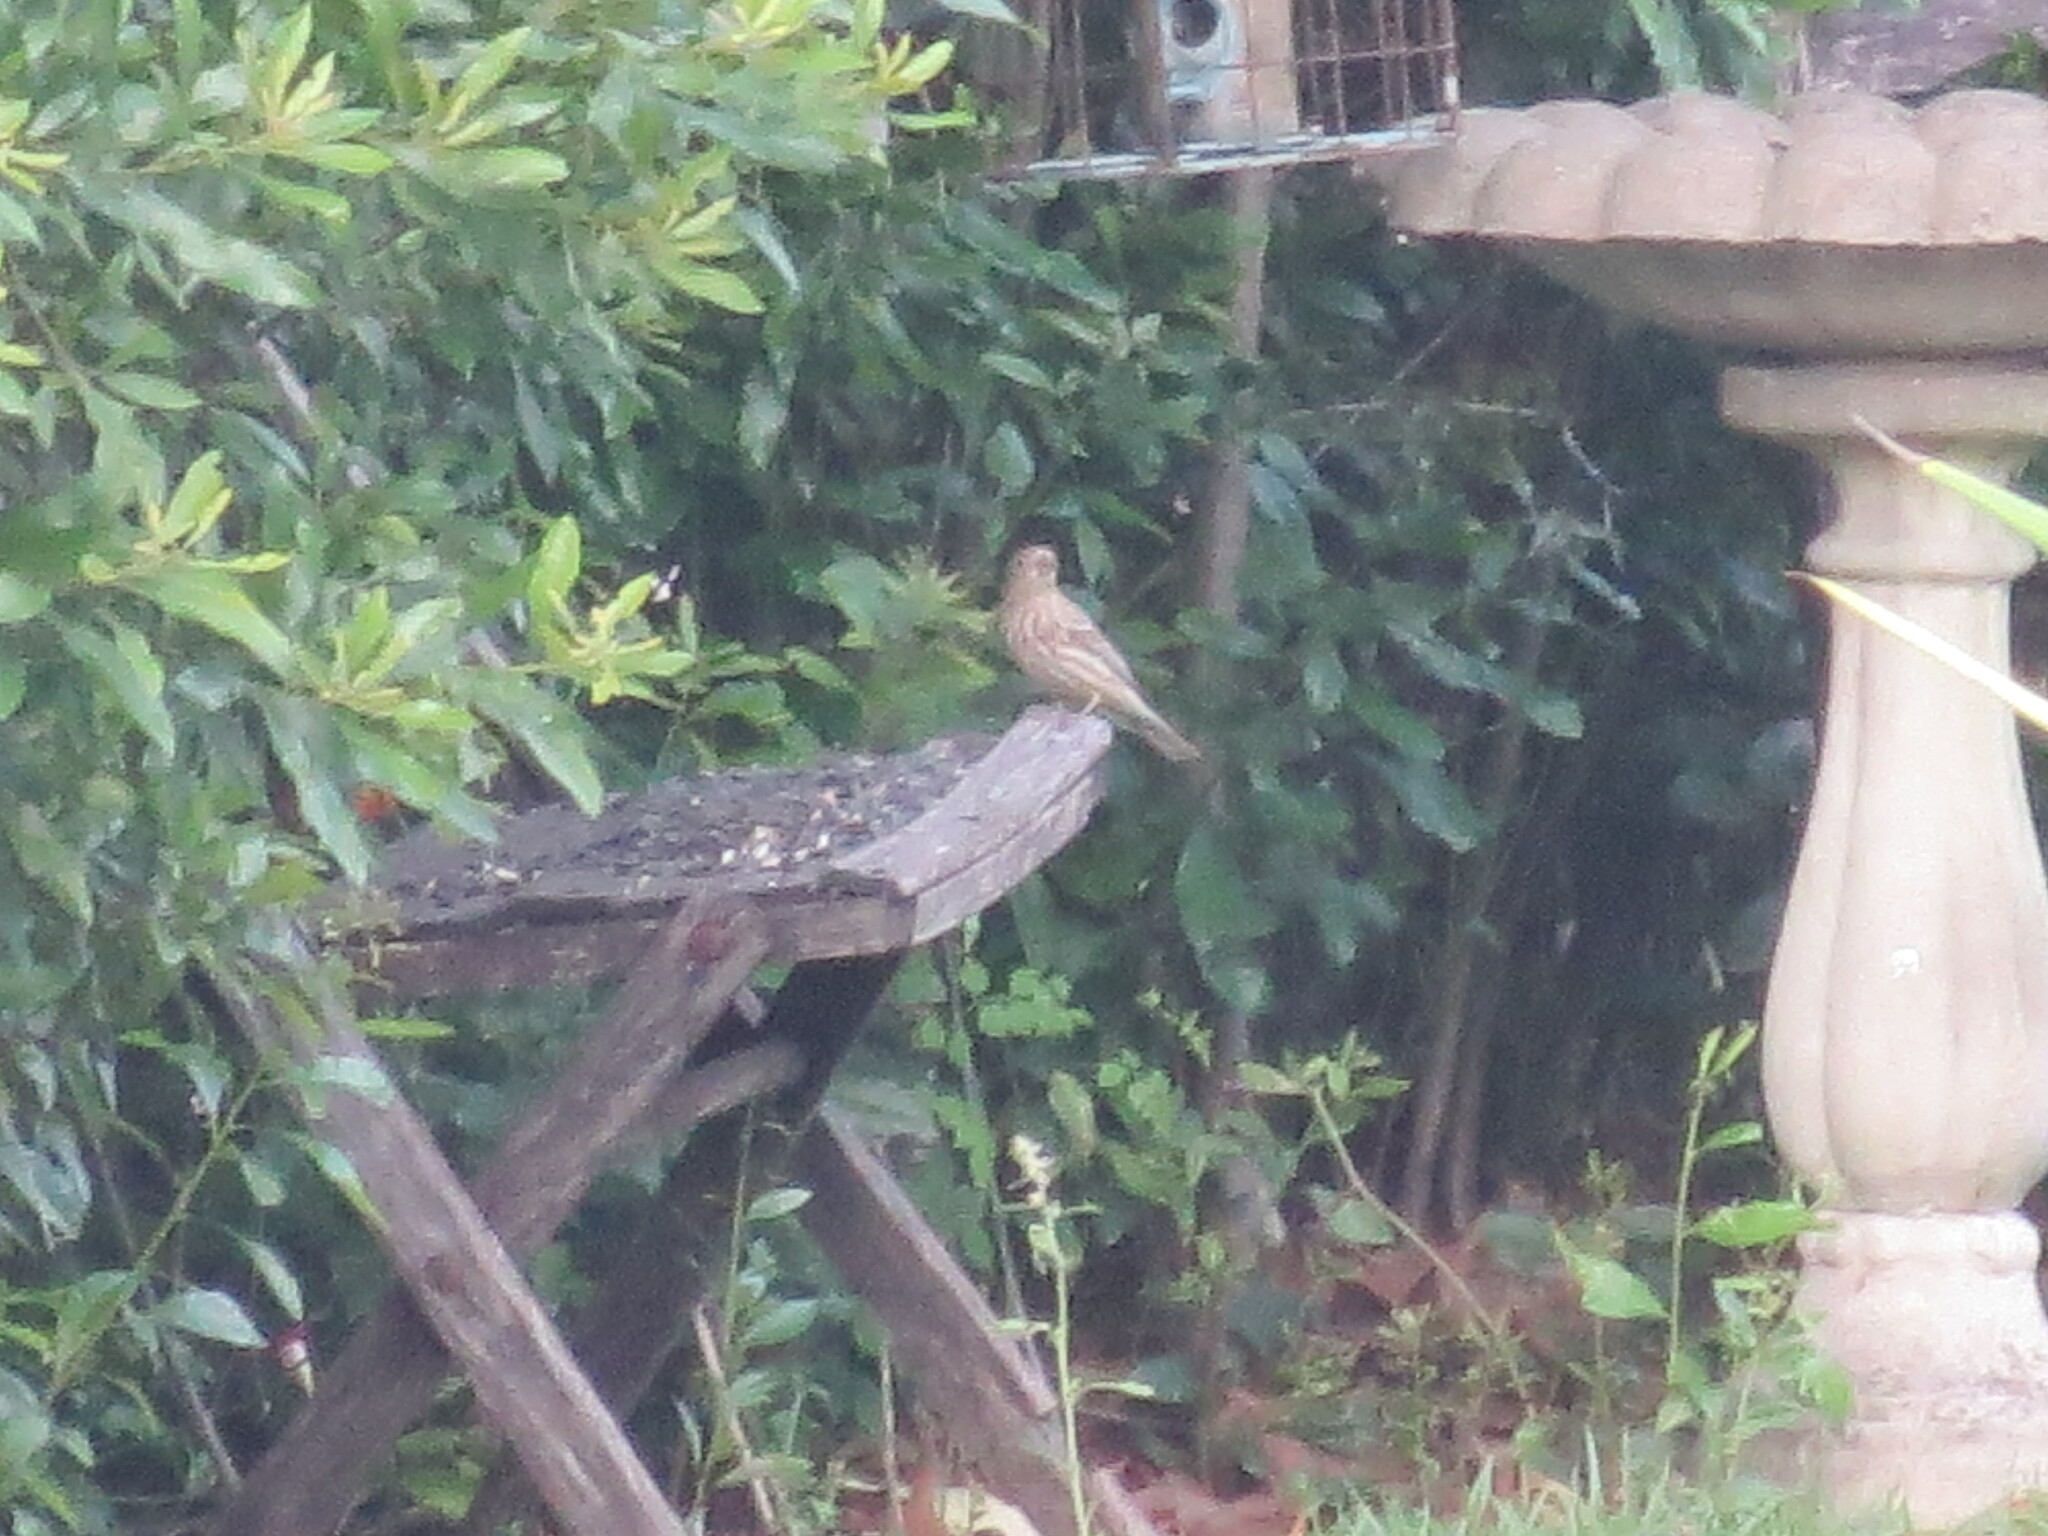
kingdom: Animalia
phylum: Chordata
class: Aves
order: Passeriformes
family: Fringillidae
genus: Haemorhous
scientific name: Haemorhous mexicanus
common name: House finch
